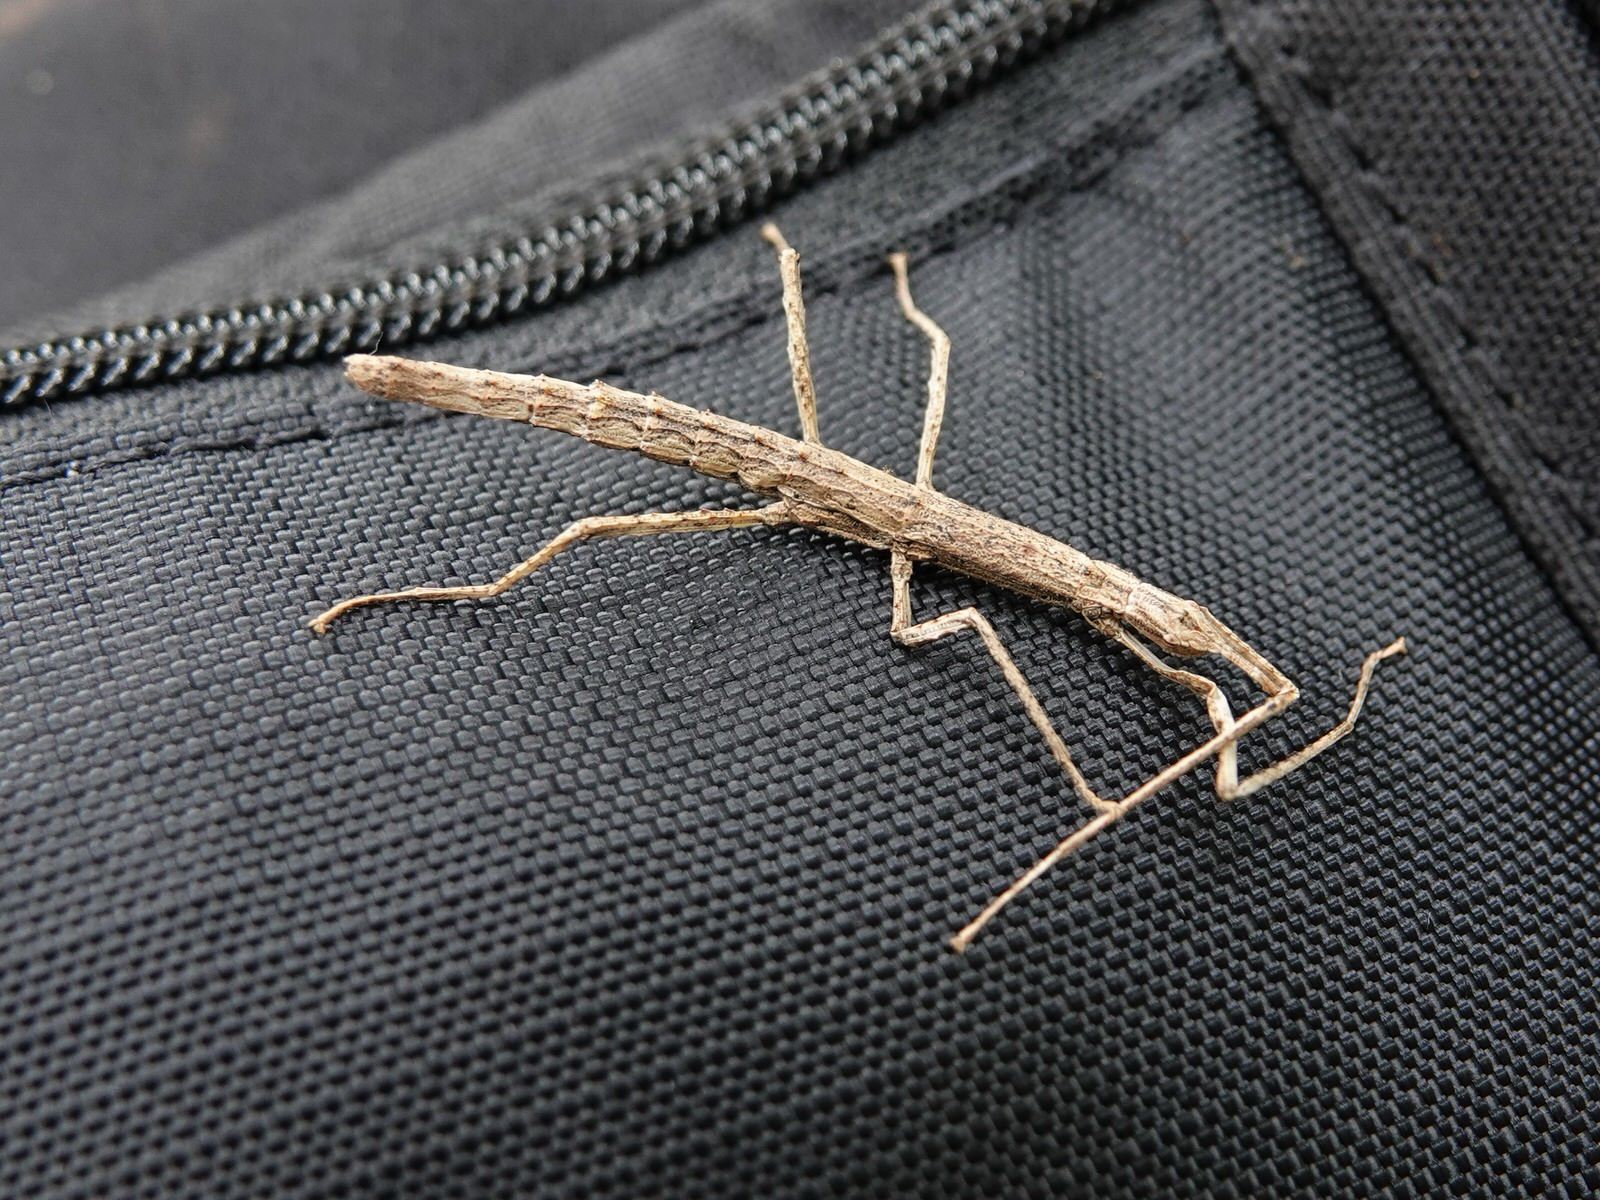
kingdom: Animalia
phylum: Arthropoda
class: Insecta
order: Phasmida
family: Phasmatidae
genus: Spinotectarchus
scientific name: Spinotectarchus acornutus
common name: The spiny ridge-backed stick insect
